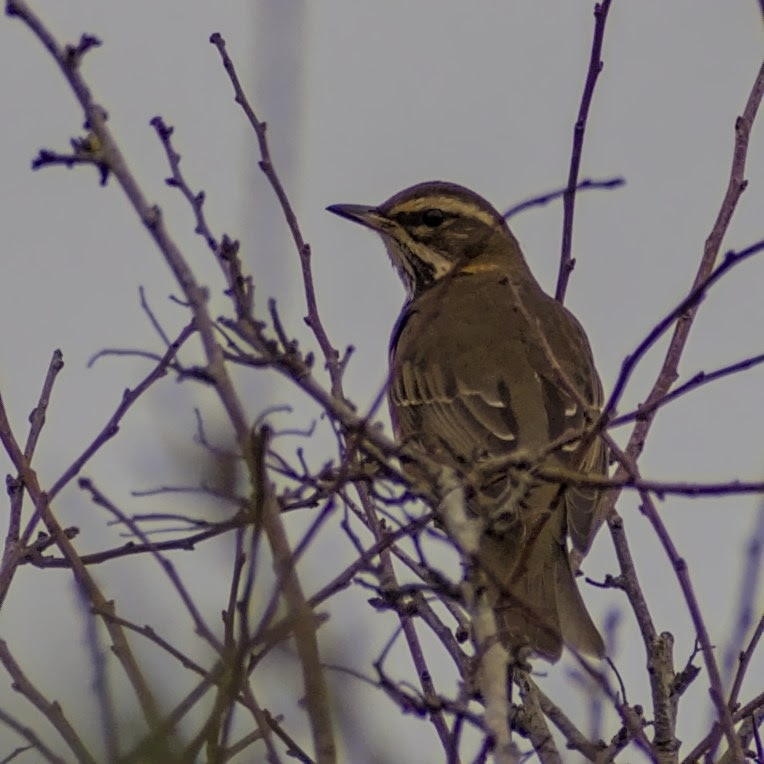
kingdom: Animalia
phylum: Chordata
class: Aves
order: Passeriformes
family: Turdidae
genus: Turdus
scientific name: Turdus iliacus
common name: Redwing
